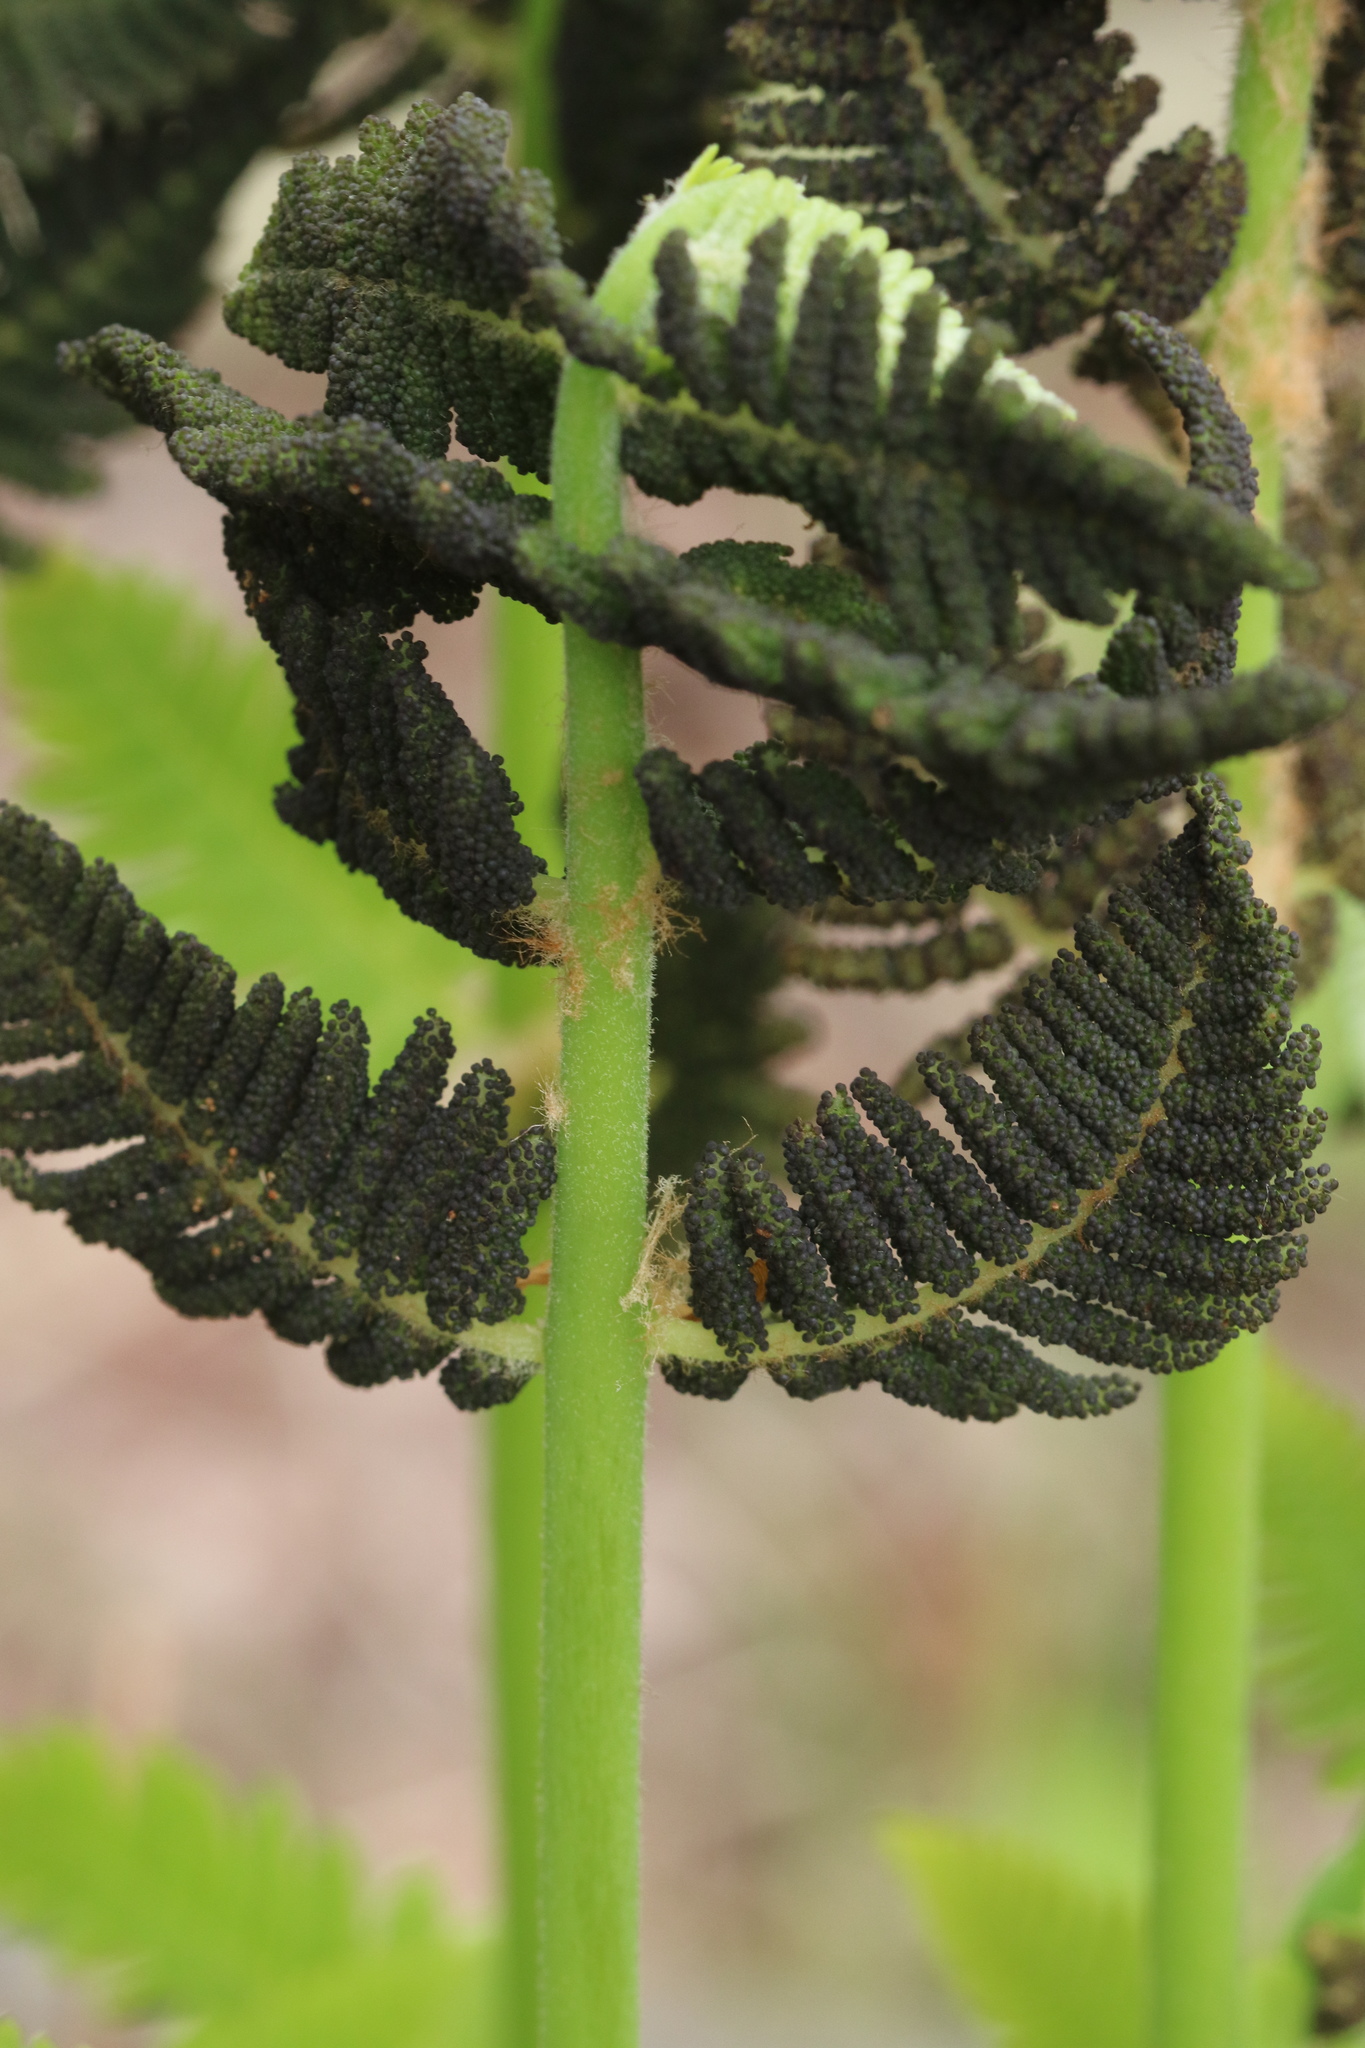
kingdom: Plantae
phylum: Tracheophyta
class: Polypodiopsida
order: Osmundales
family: Osmundaceae
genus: Claytosmunda
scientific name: Claytosmunda claytoniana
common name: Clayton's fern
